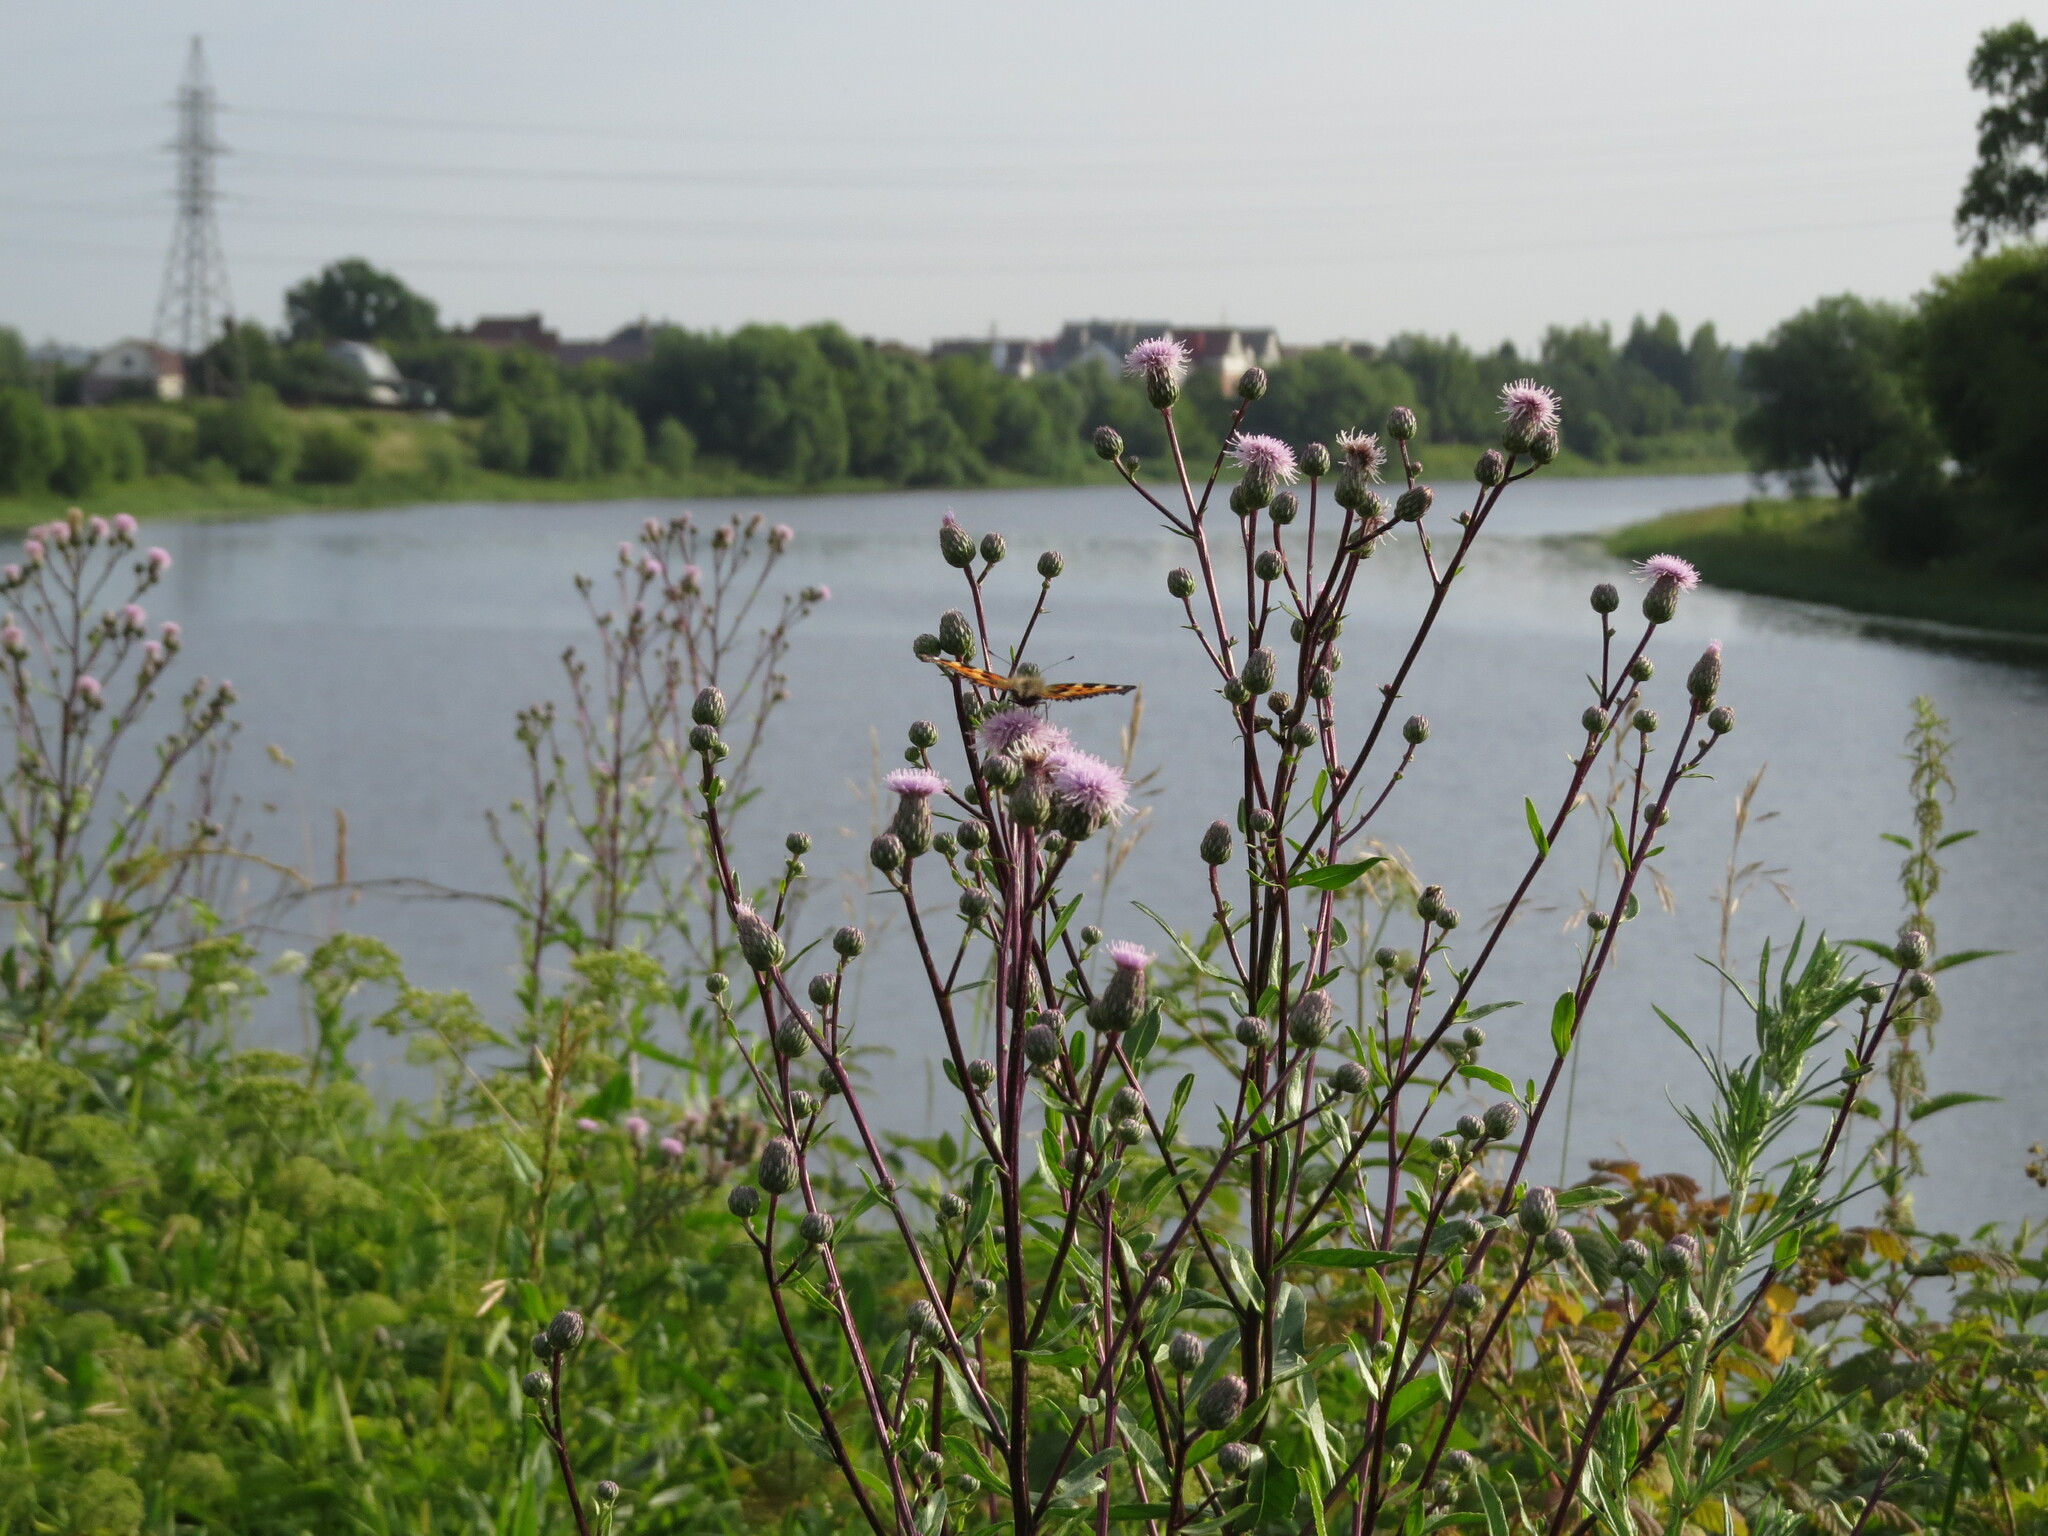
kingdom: Animalia
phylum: Arthropoda
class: Insecta
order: Lepidoptera
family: Nymphalidae
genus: Aglais
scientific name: Aglais urticae
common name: Small tortoiseshell
